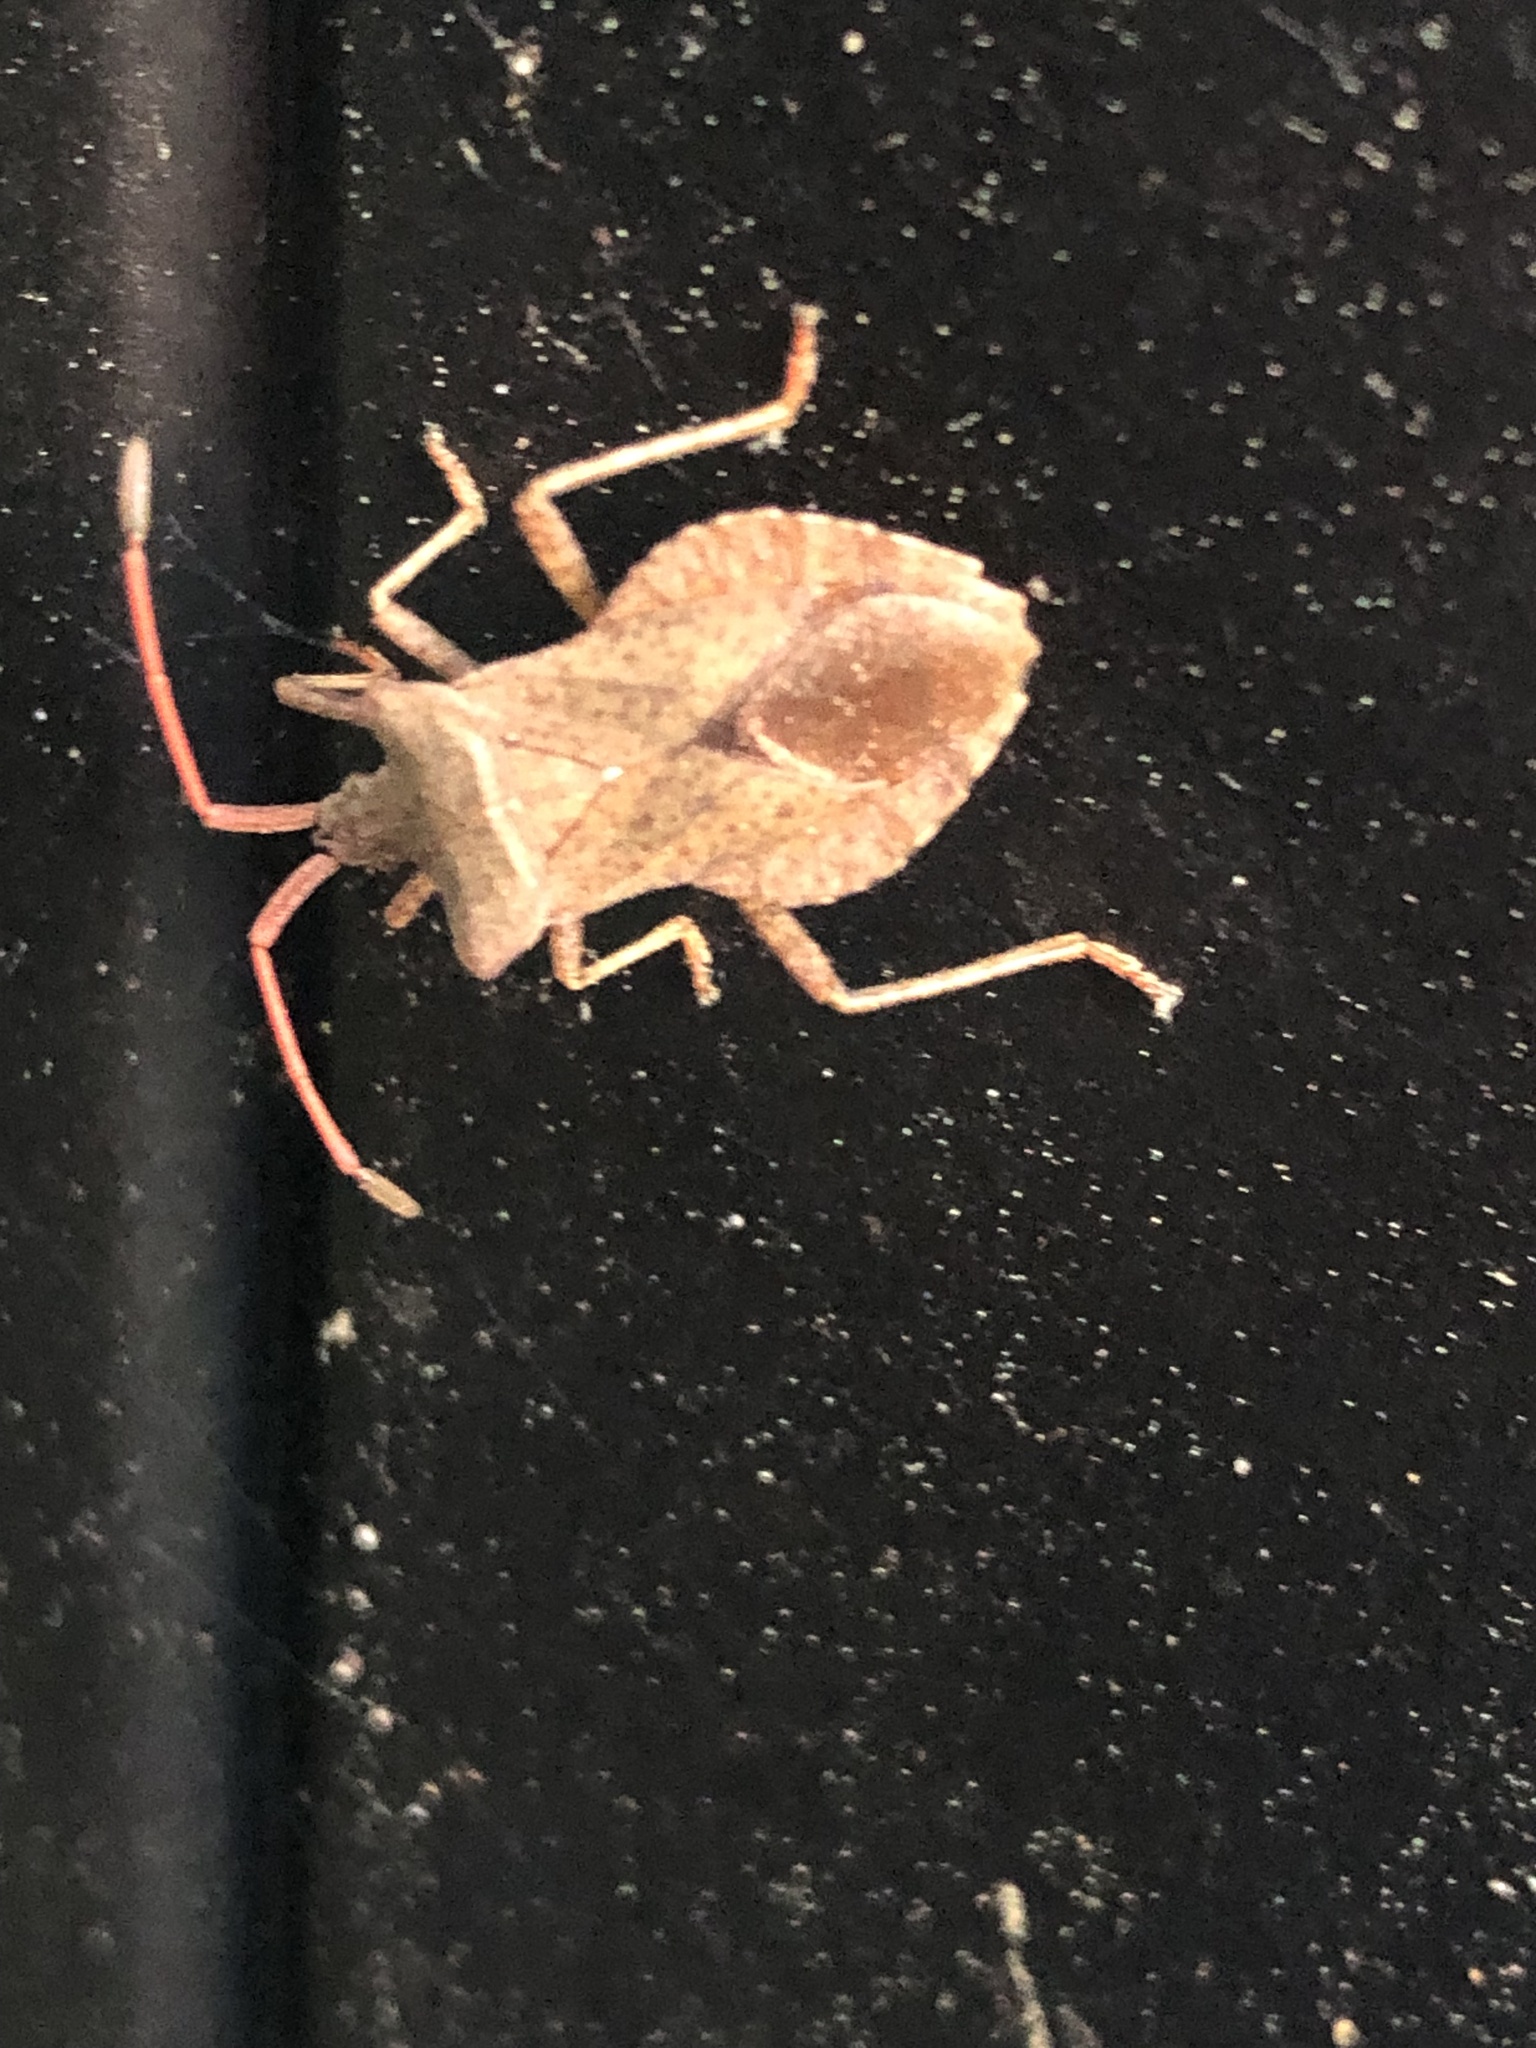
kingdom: Animalia
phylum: Arthropoda
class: Insecta
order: Hemiptera
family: Coreidae
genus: Coreus
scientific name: Coreus marginatus
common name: Dock bug
